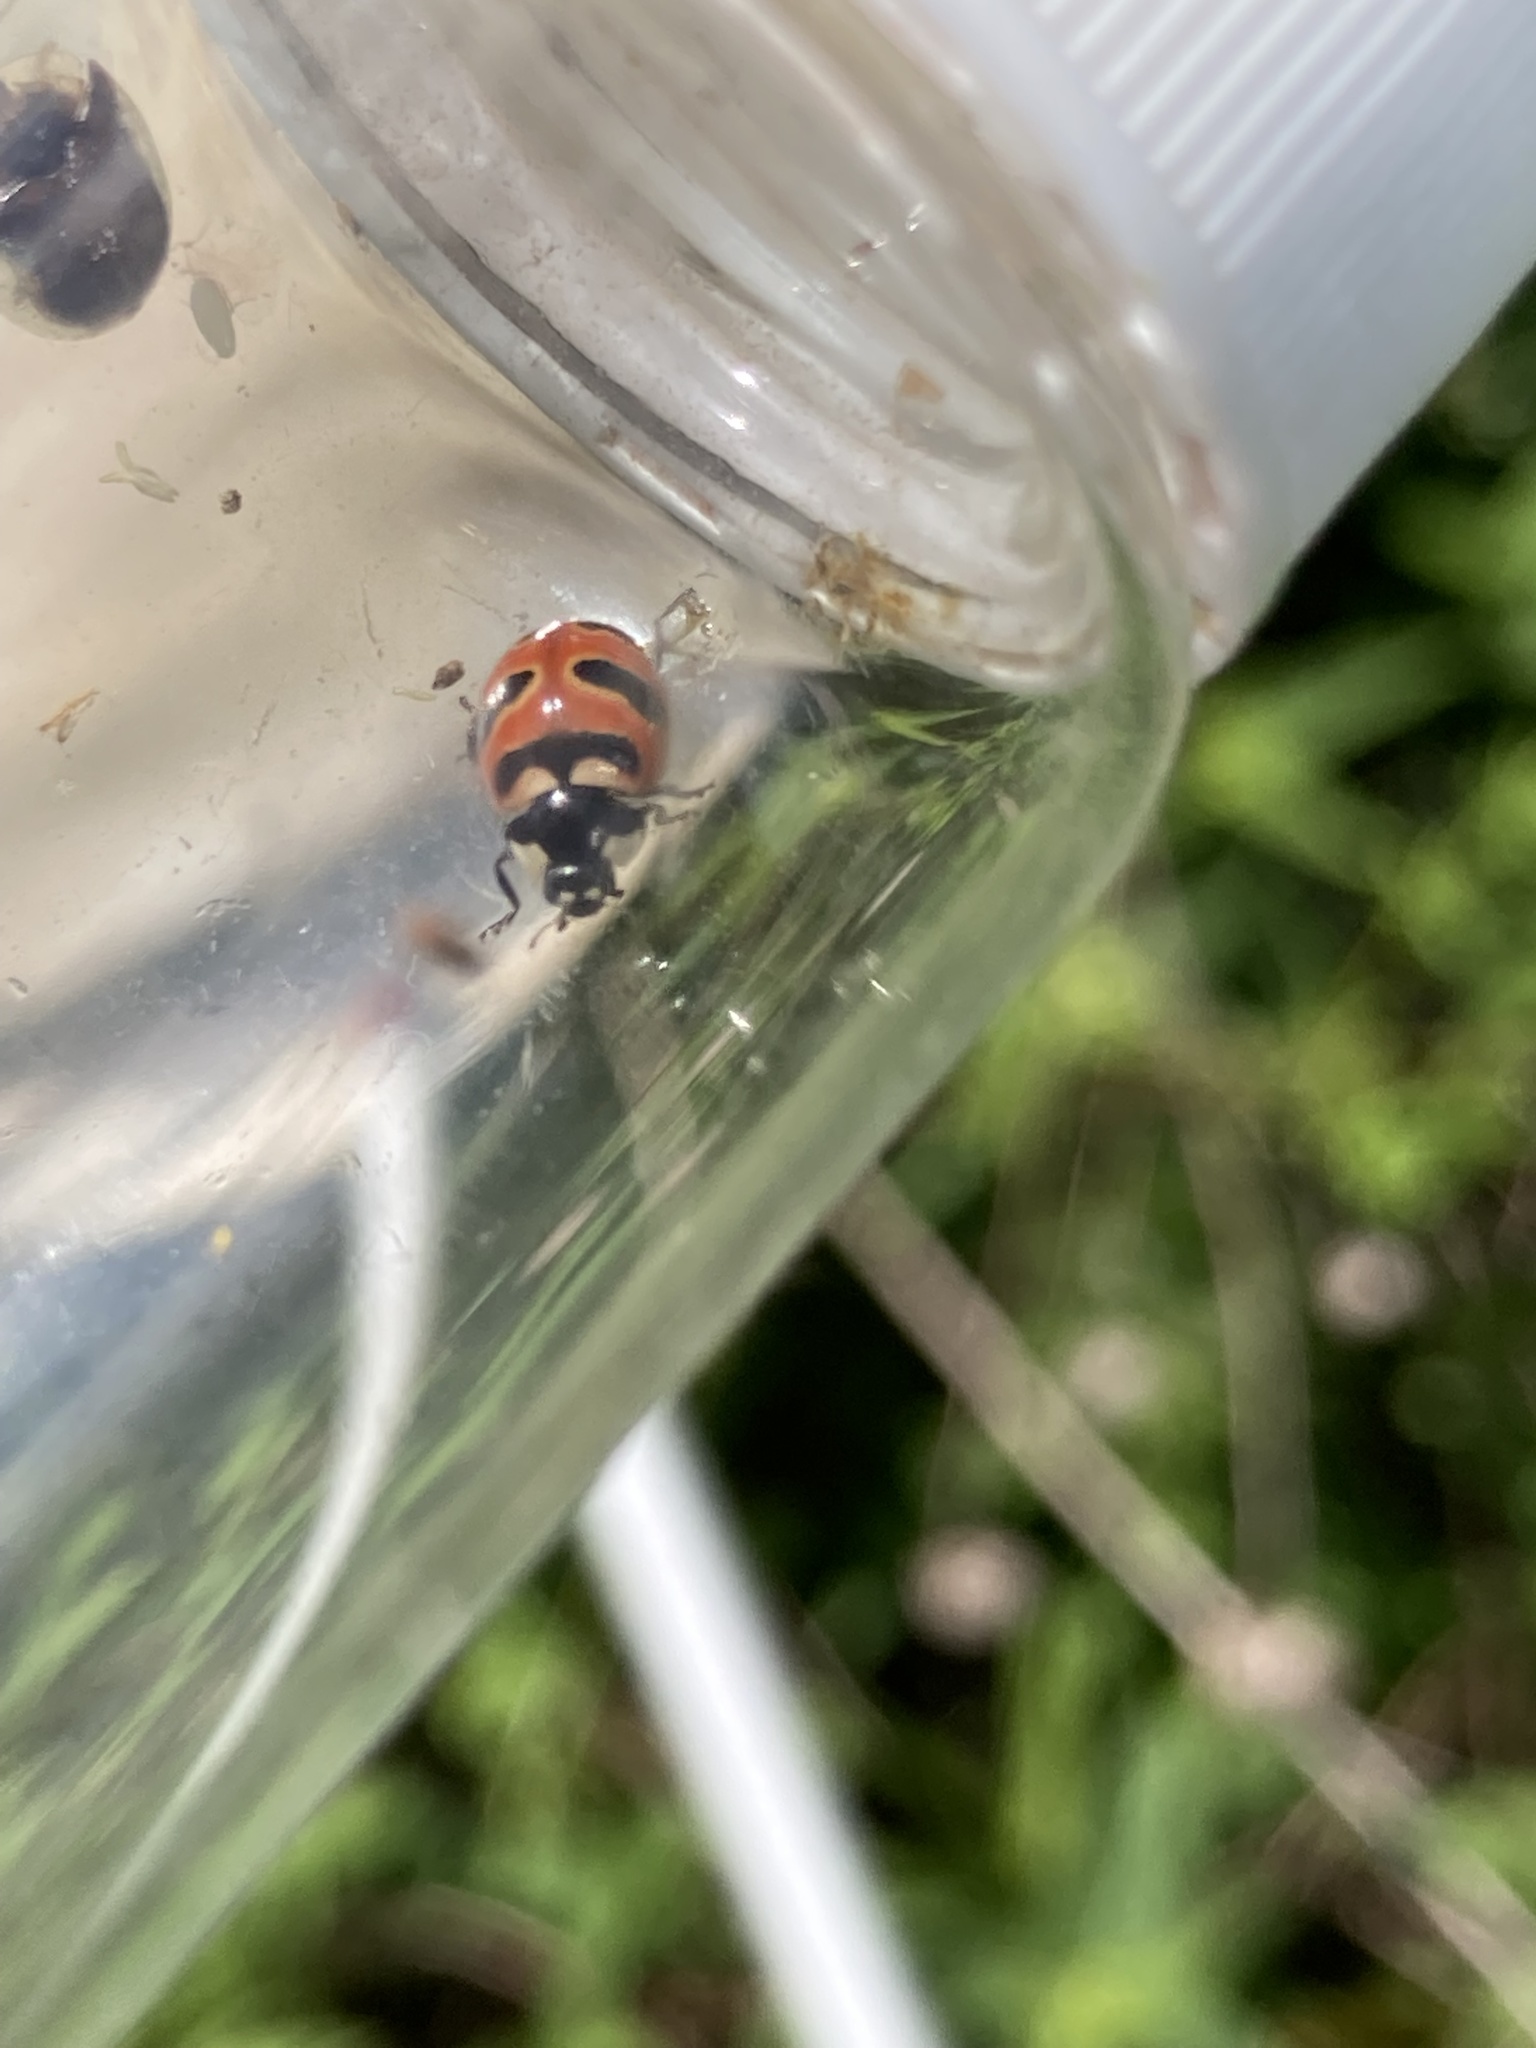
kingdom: Animalia
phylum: Arthropoda
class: Insecta
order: Coleoptera
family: Coccinellidae
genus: Coccinella
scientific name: Coccinella trifasciata
